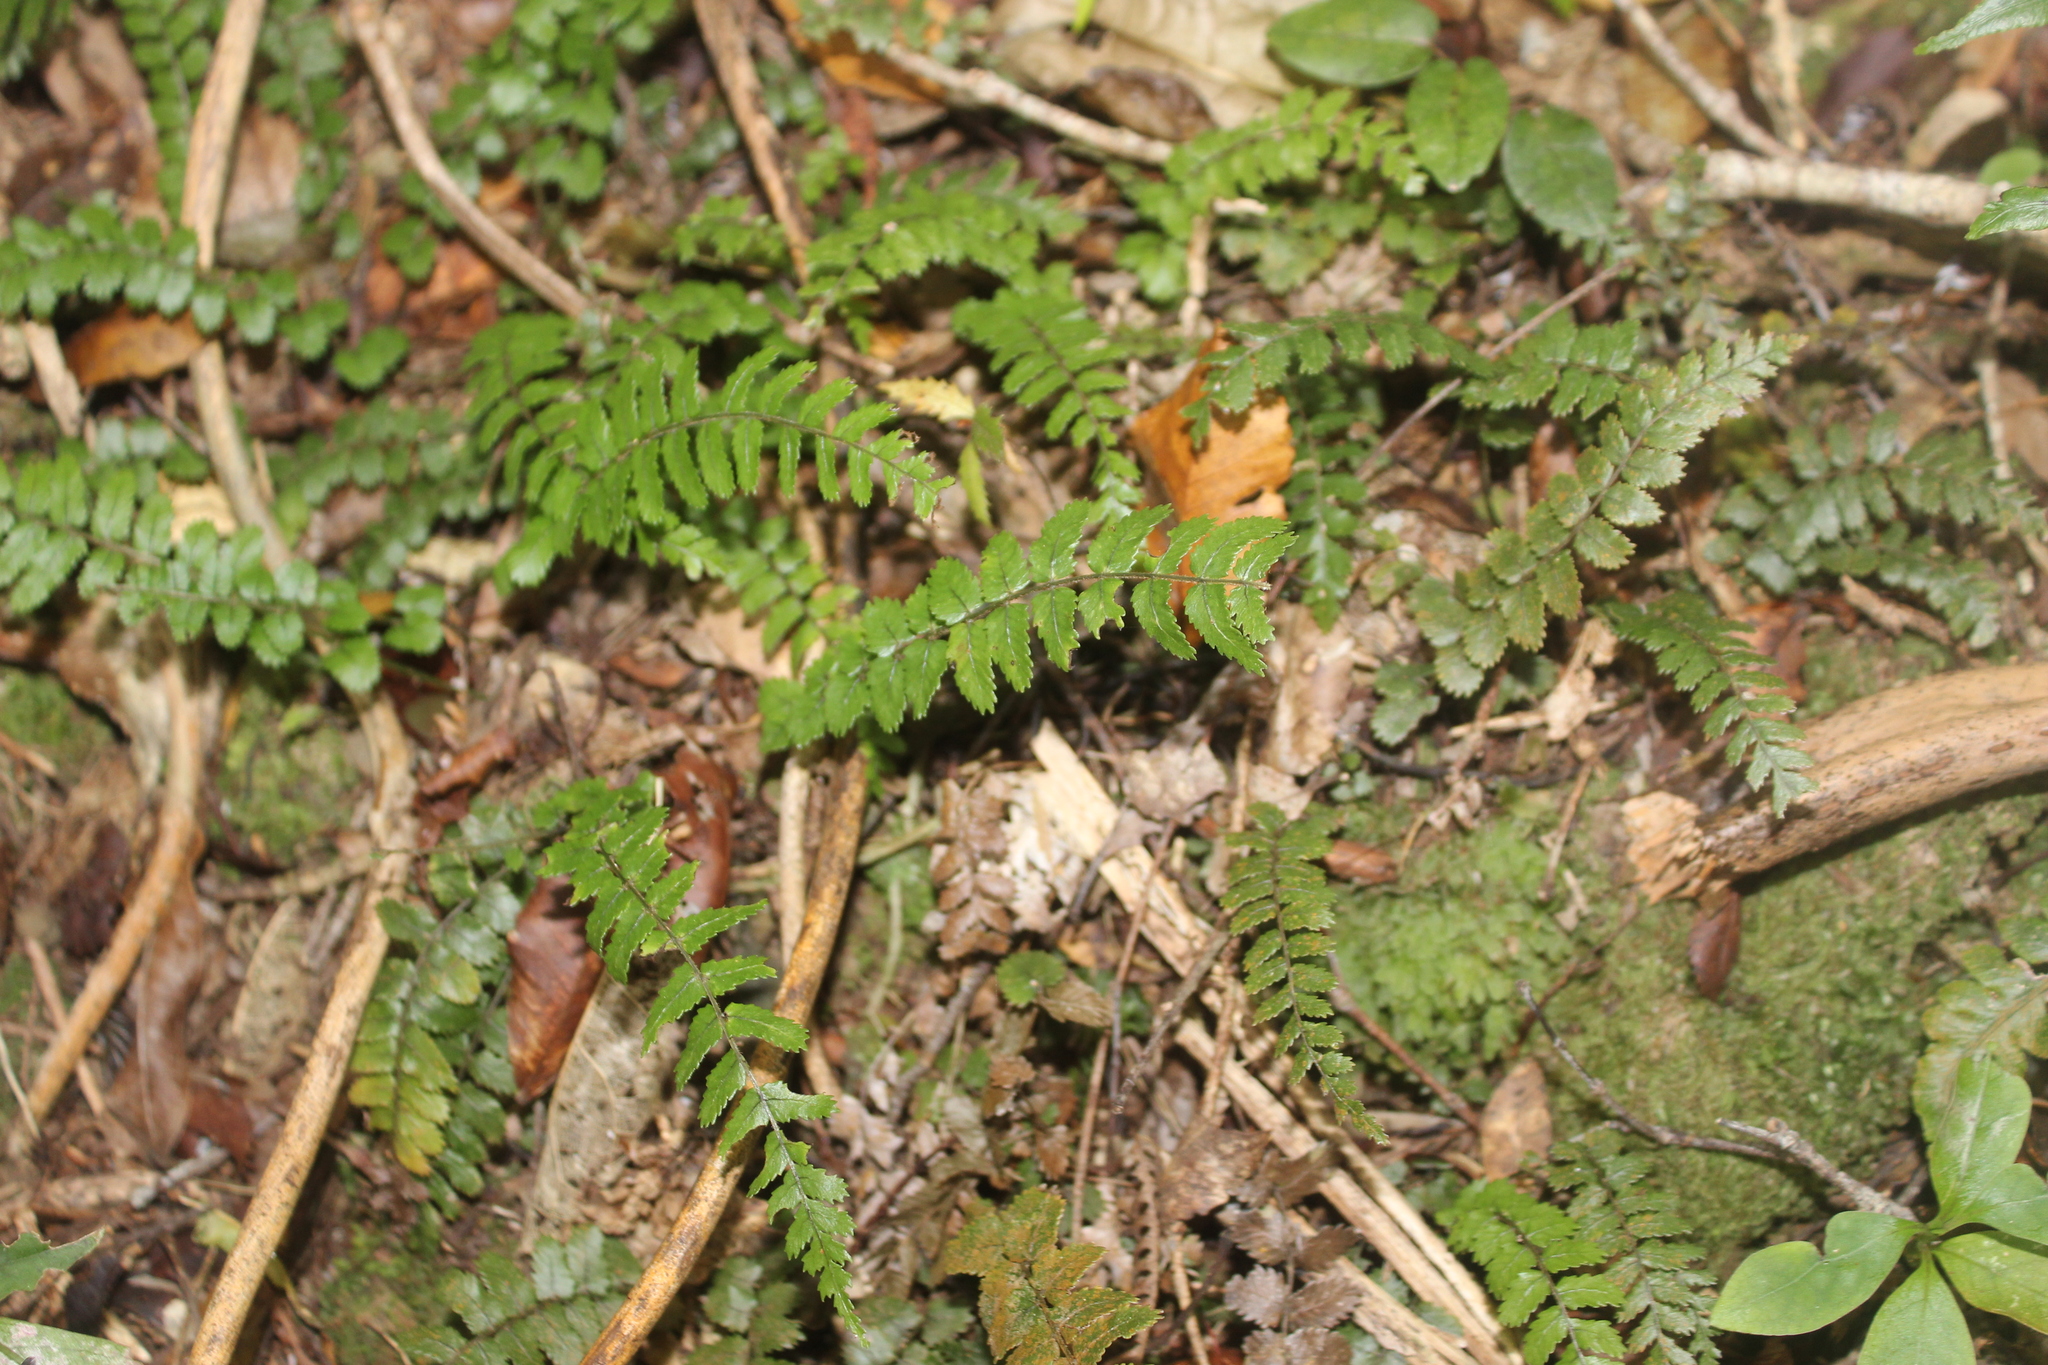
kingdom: Plantae
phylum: Tracheophyta
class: Polypodiopsida
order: Polypodiales
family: Blechnaceae
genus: Icarus
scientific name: Icarus filiformis
